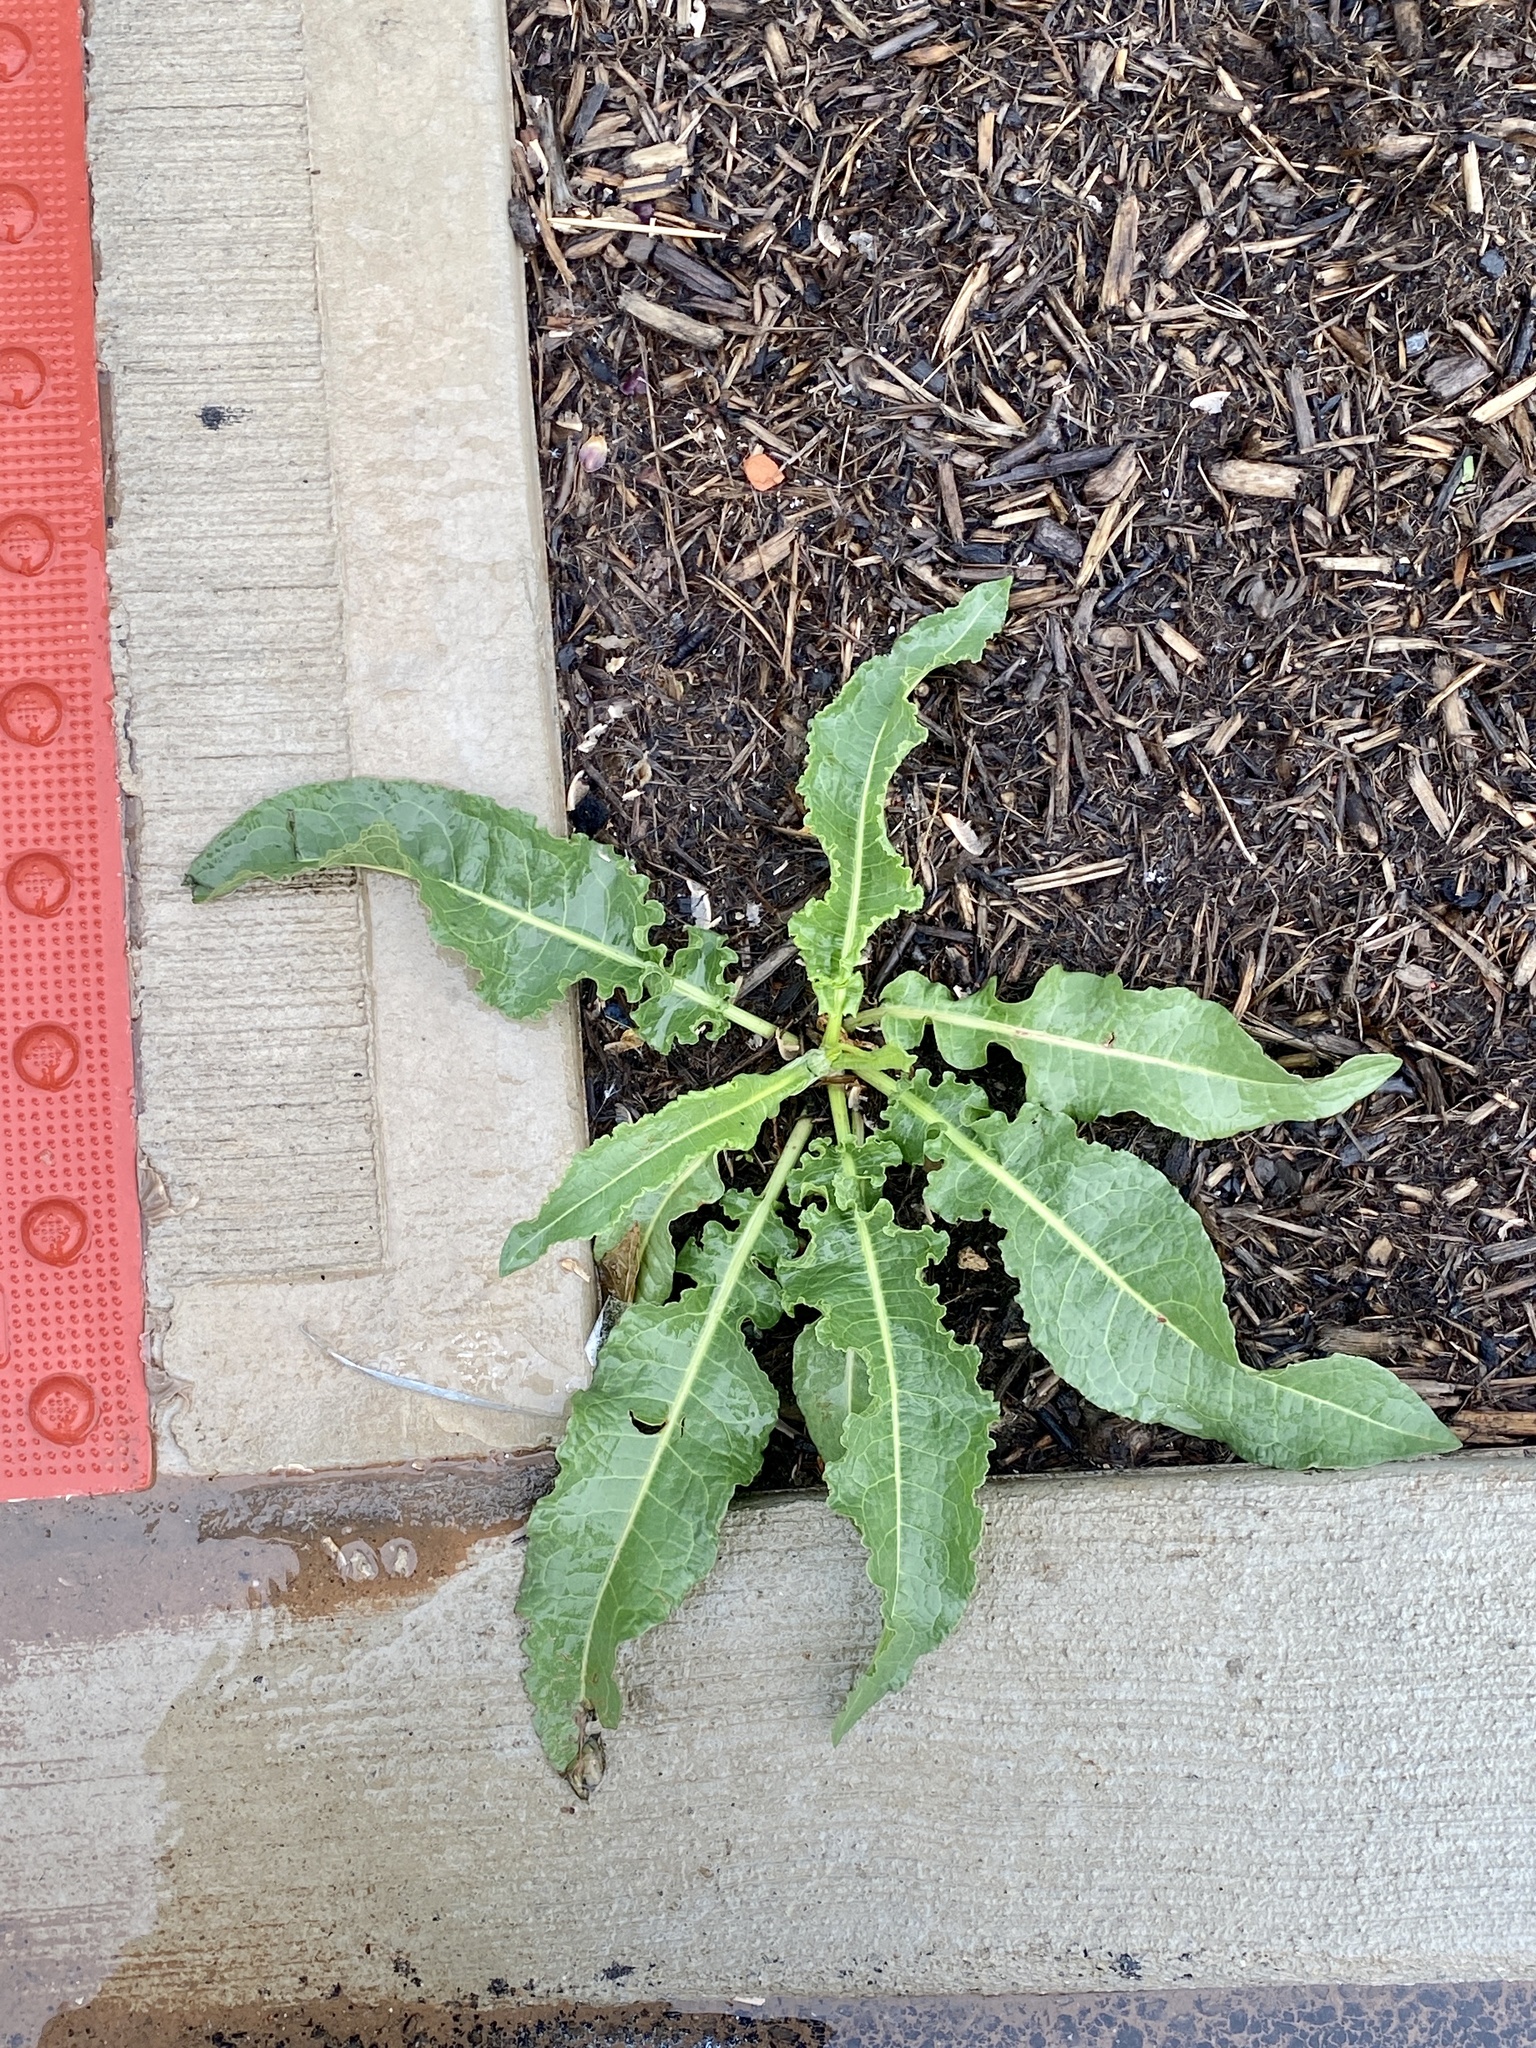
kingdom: Plantae
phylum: Tracheophyta
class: Magnoliopsida
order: Caryophyllales
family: Polygonaceae
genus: Rumex
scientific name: Rumex crispus
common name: Curled dock
